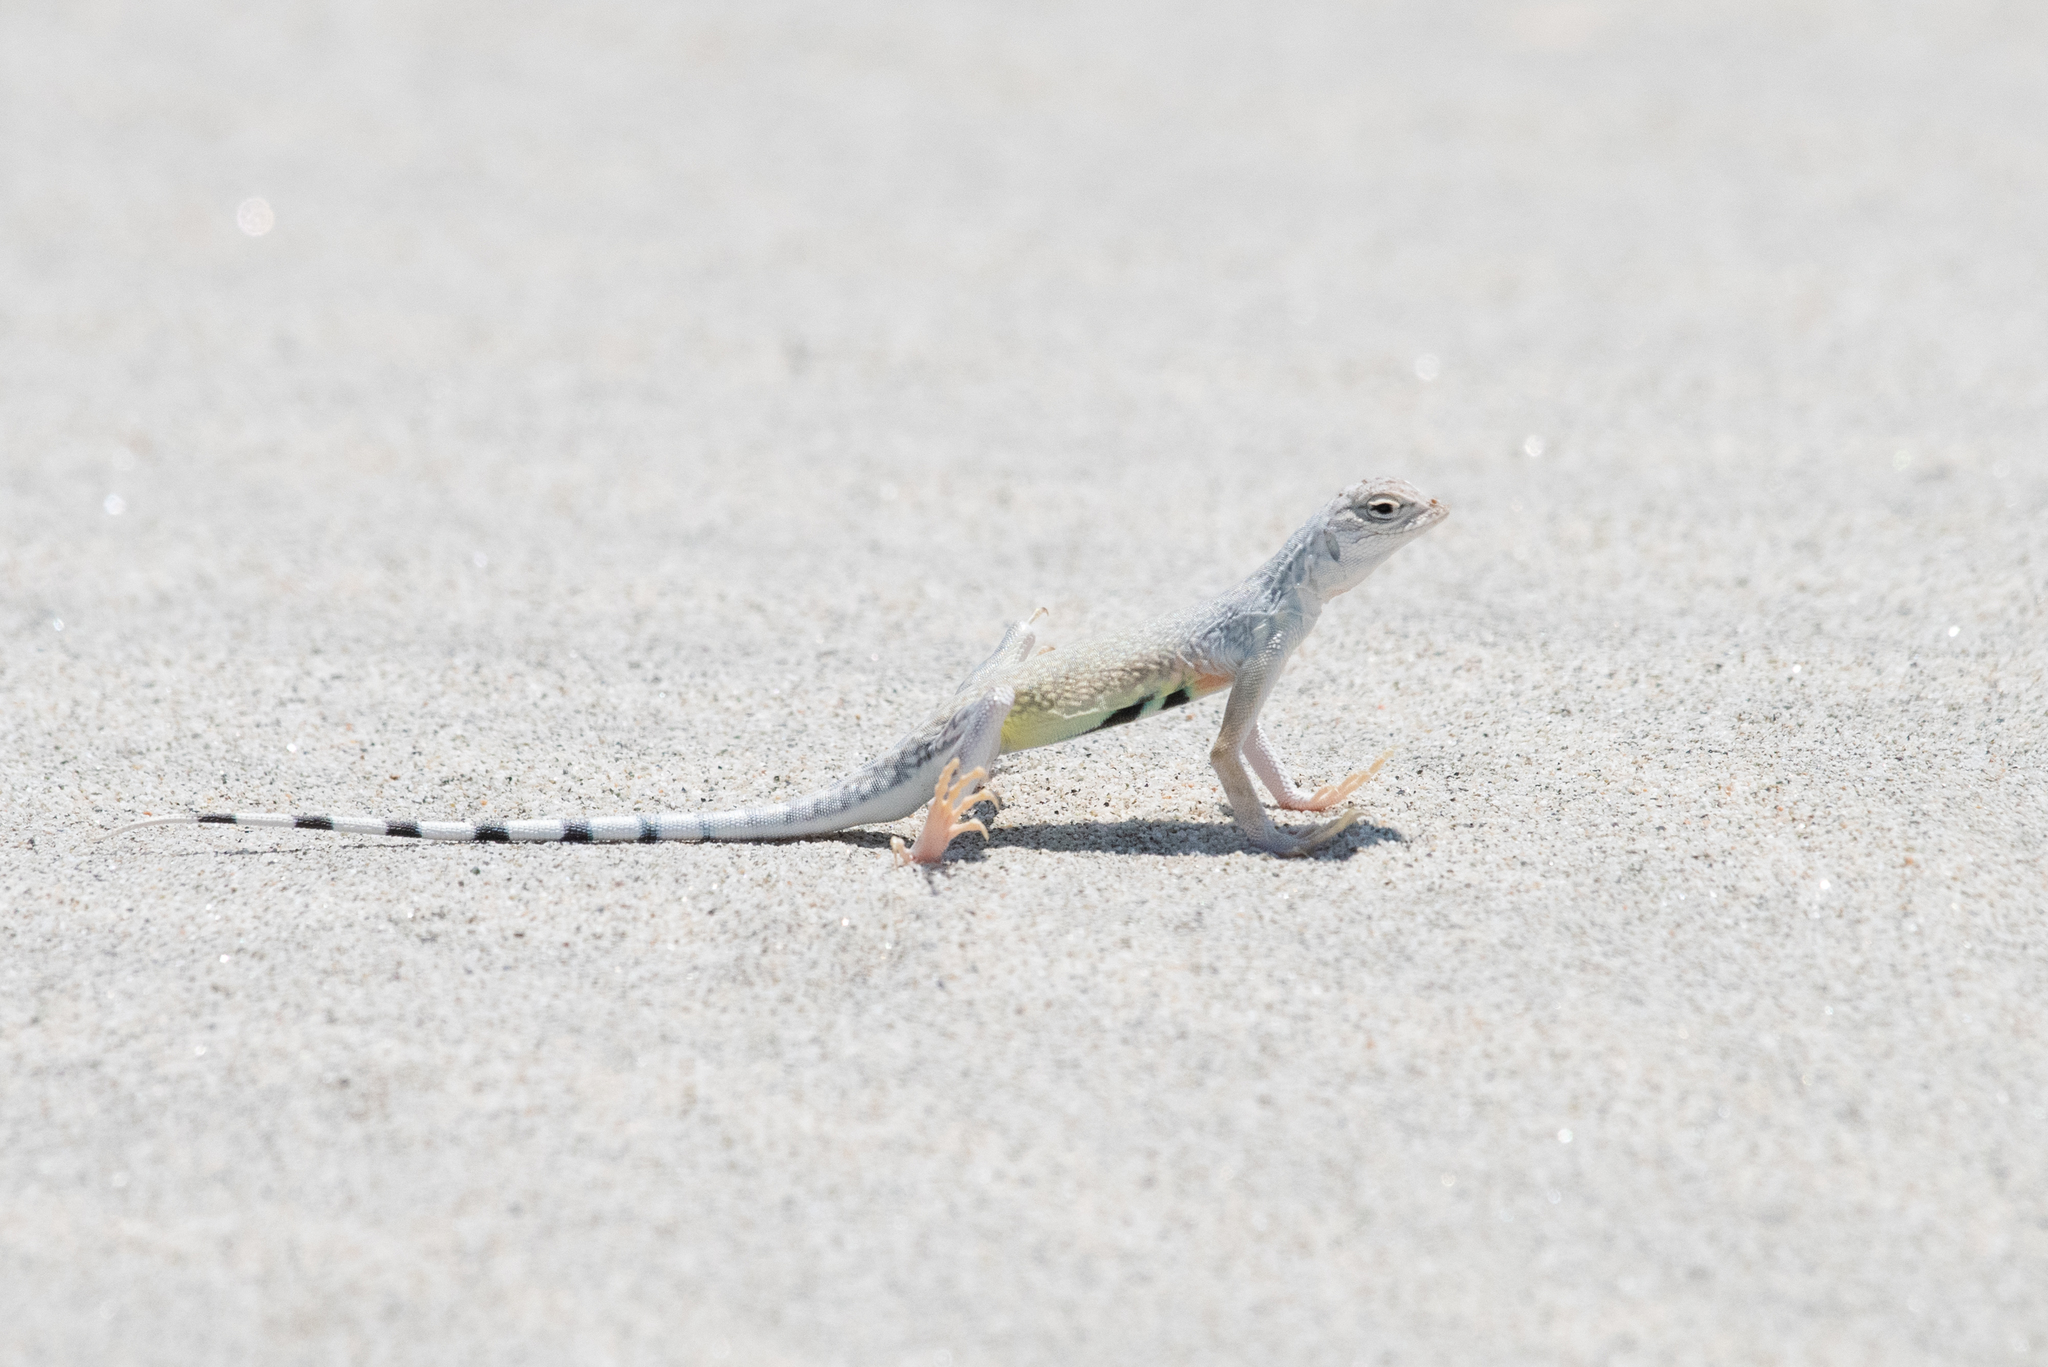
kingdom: Animalia
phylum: Chordata
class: Squamata
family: Phrynosomatidae
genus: Callisaurus
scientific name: Callisaurus draconoides
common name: Zebra-tailed lizard
